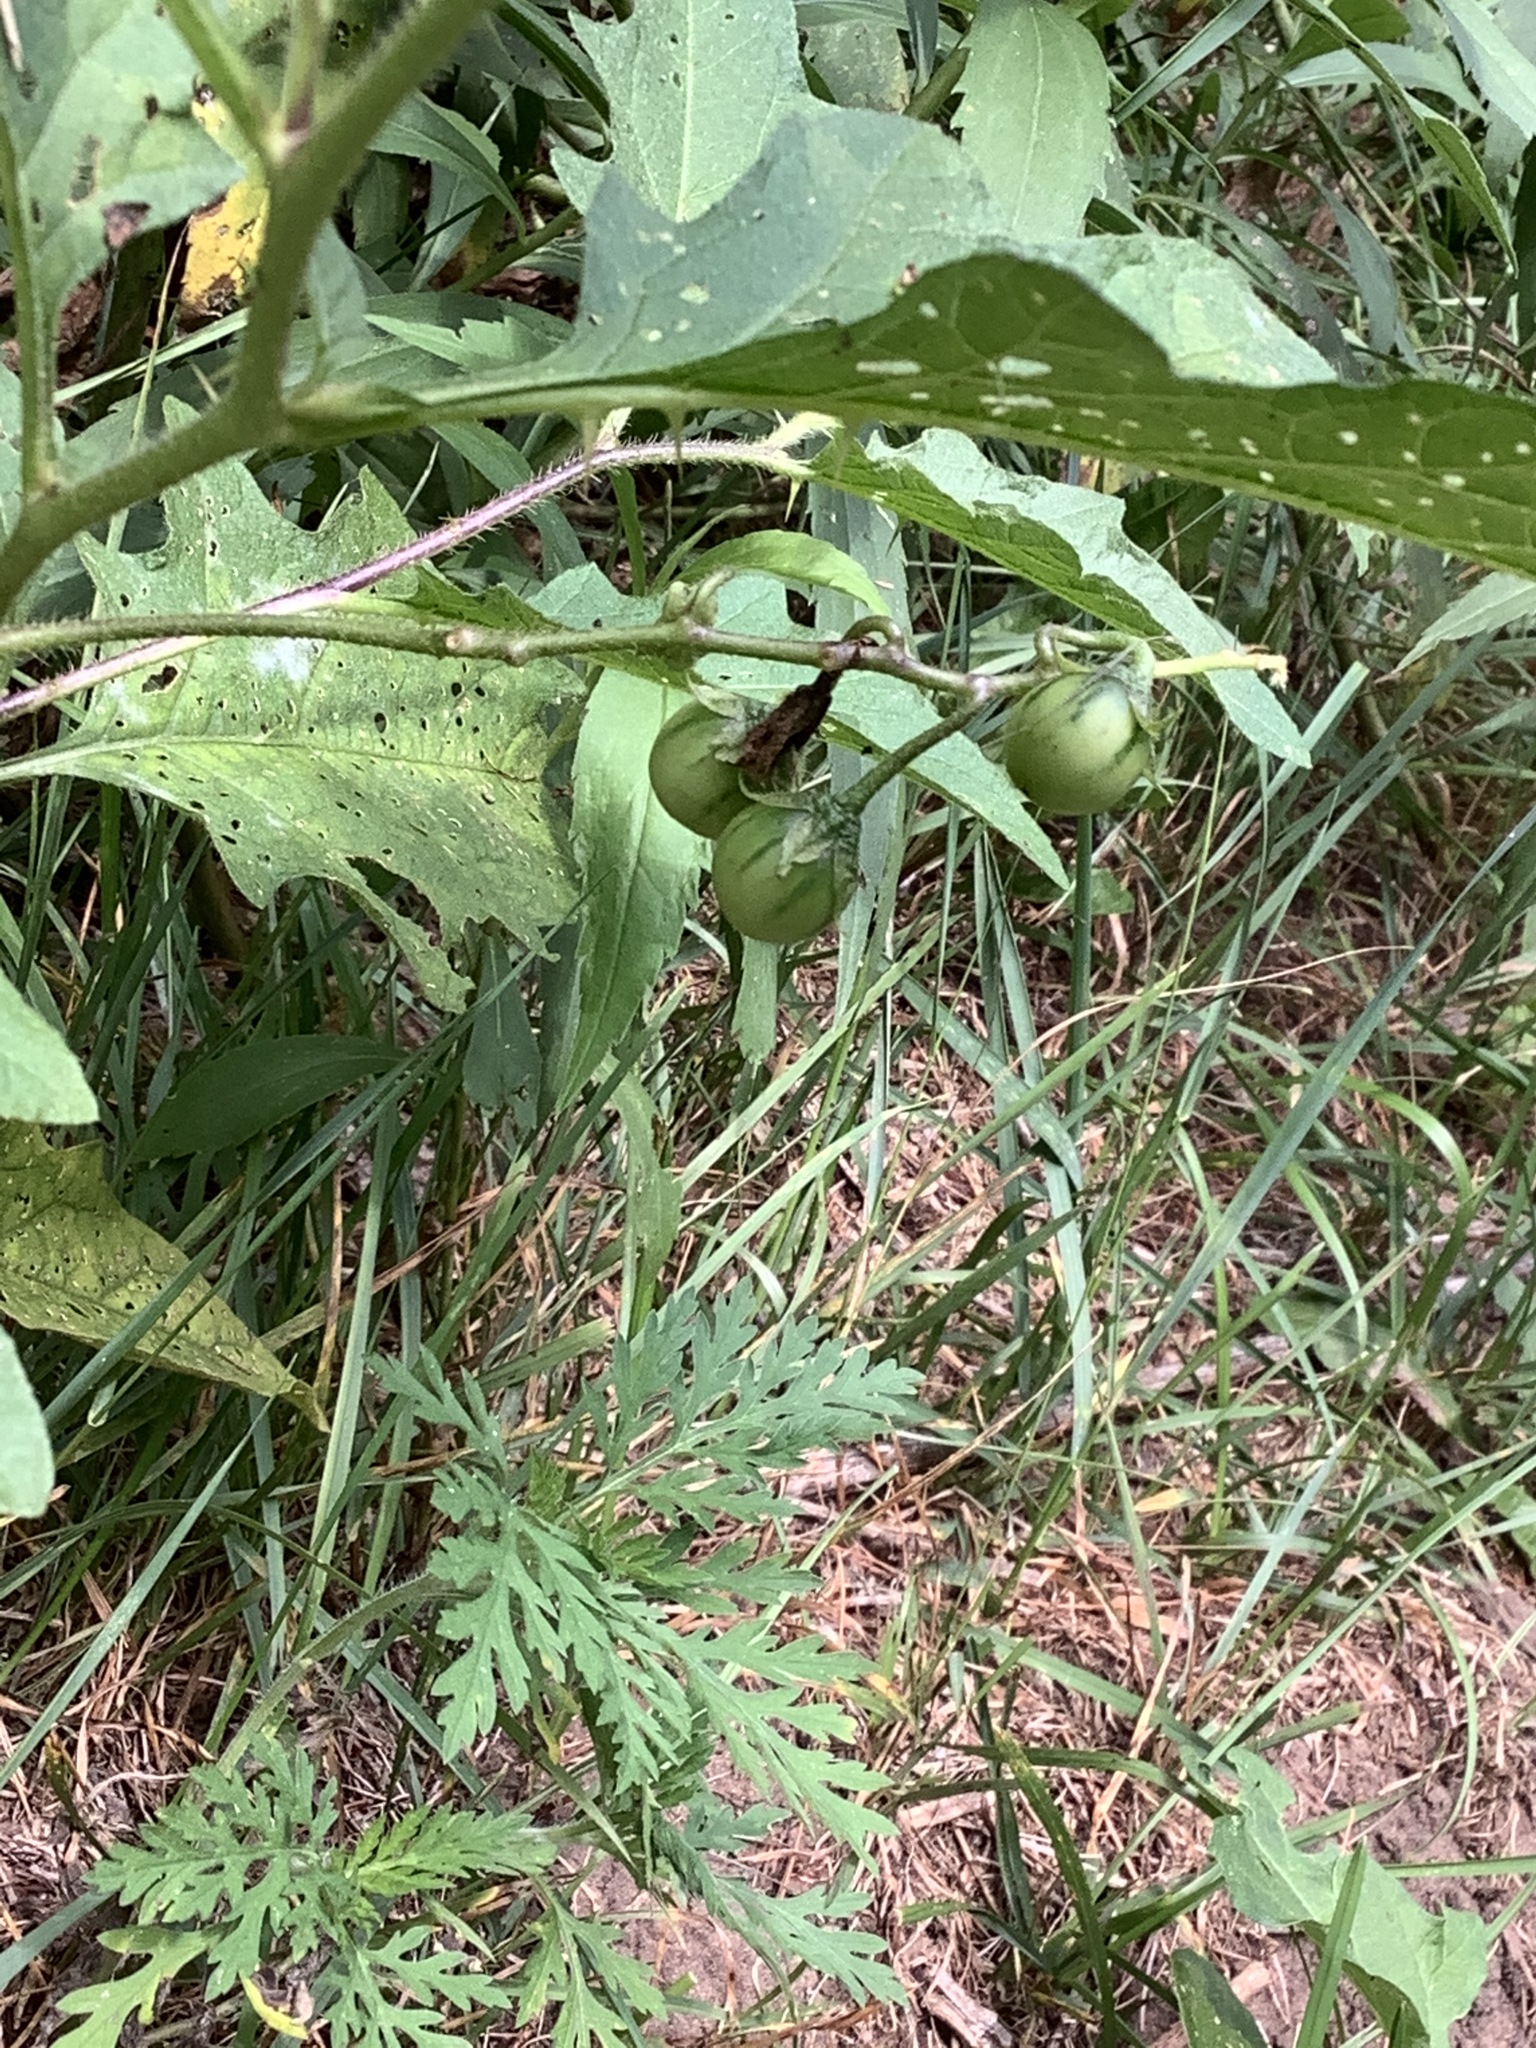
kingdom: Plantae
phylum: Tracheophyta
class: Magnoliopsida
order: Solanales
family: Solanaceae
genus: Solanum
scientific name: Solanum carolinense
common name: Horse-nettle
